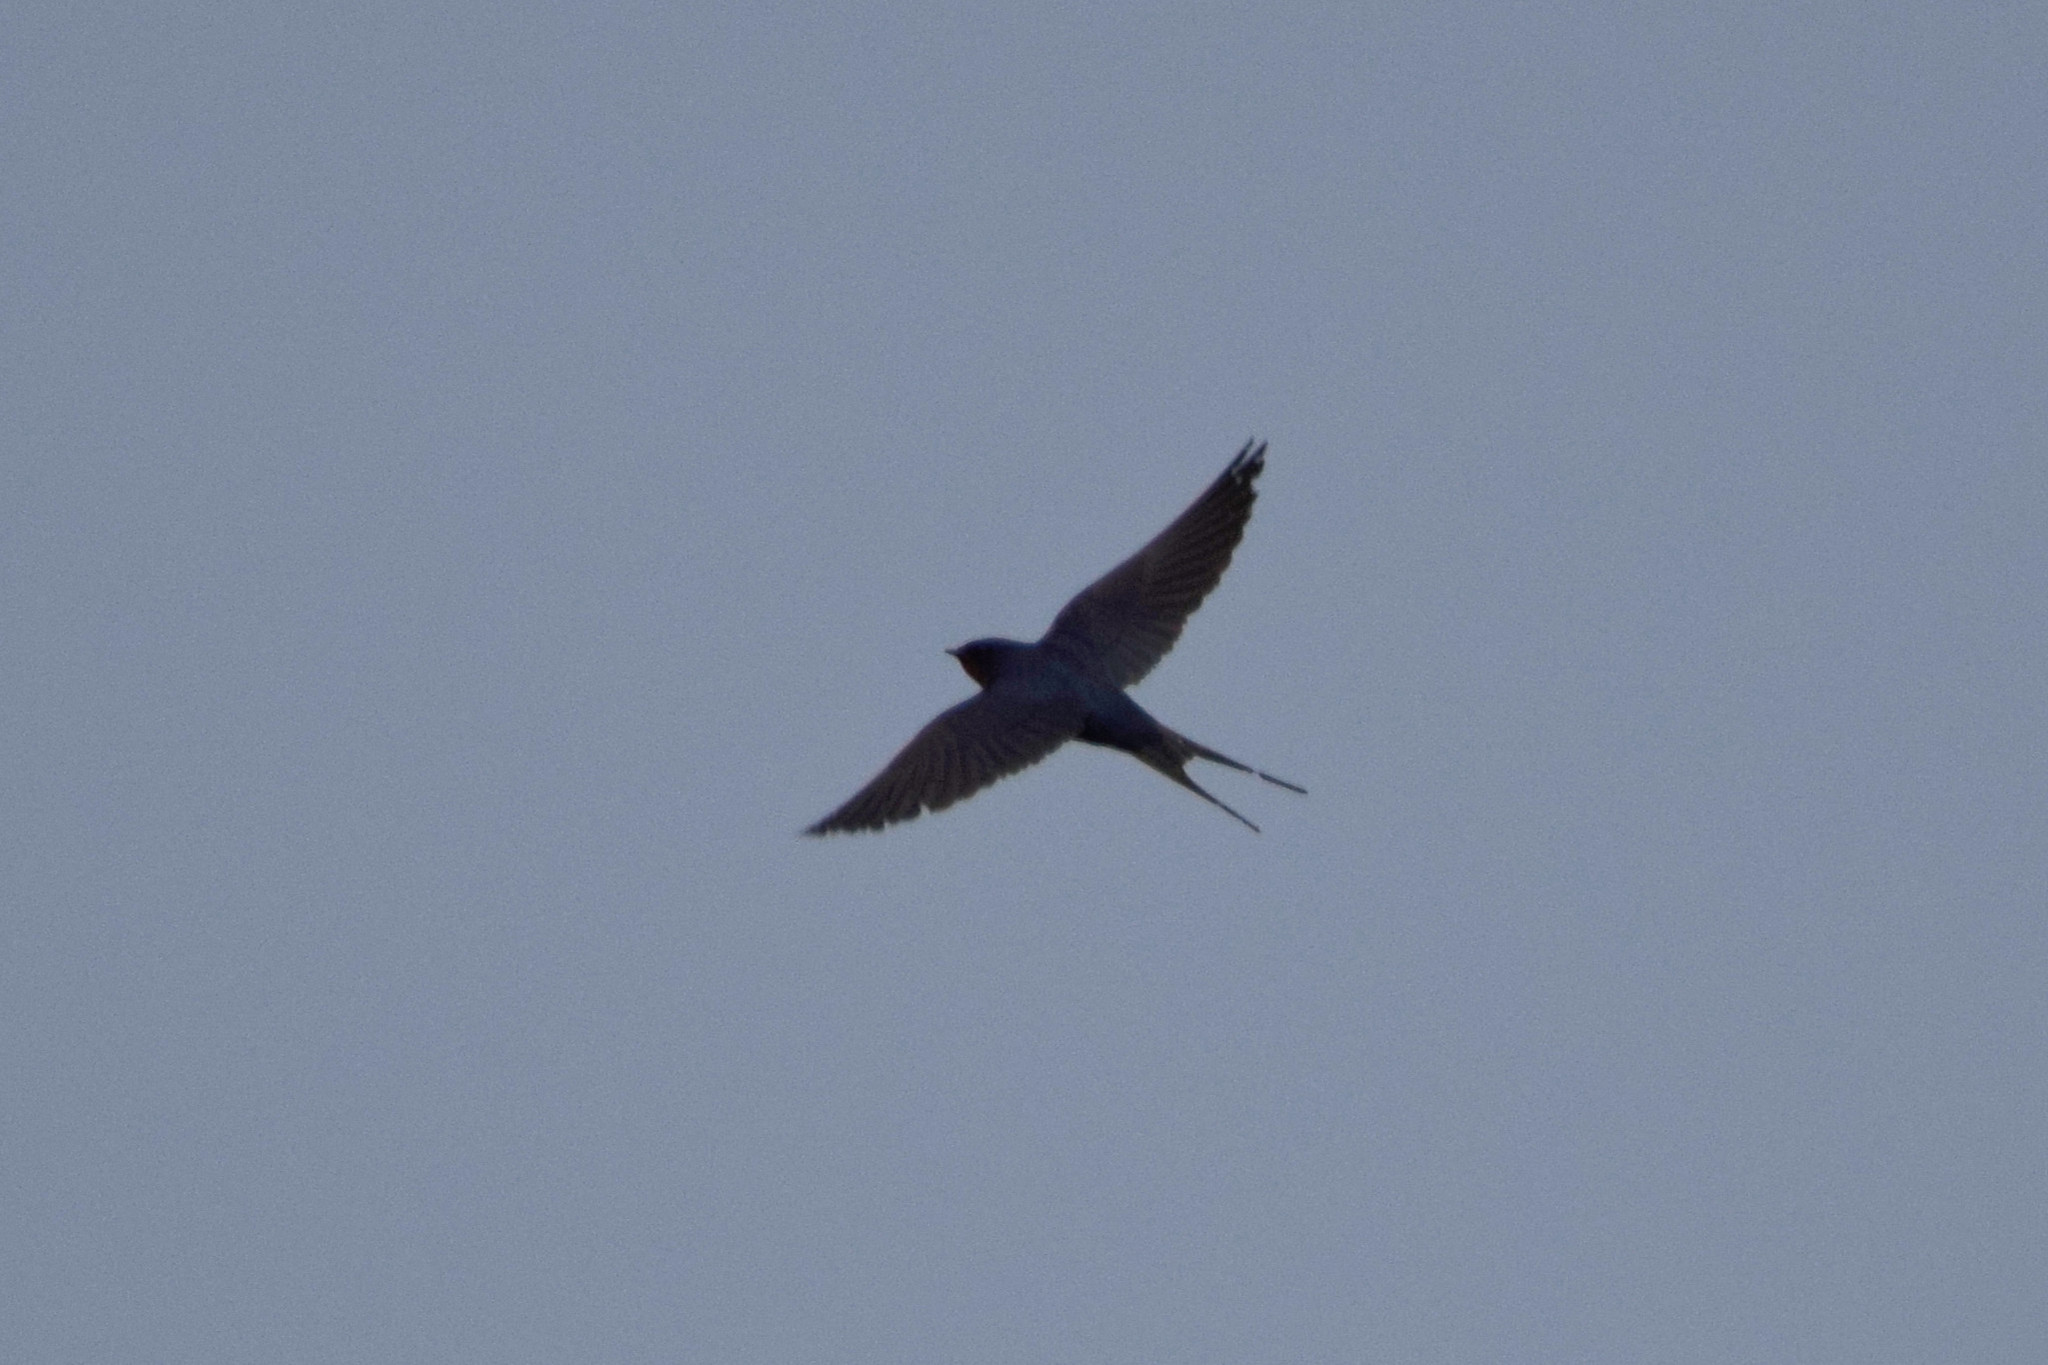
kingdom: Animalia
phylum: Chordata
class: Aves
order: Passeriformes
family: Hirundinidae
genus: Hirundo
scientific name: Hirundo rustica
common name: Barn swallow
